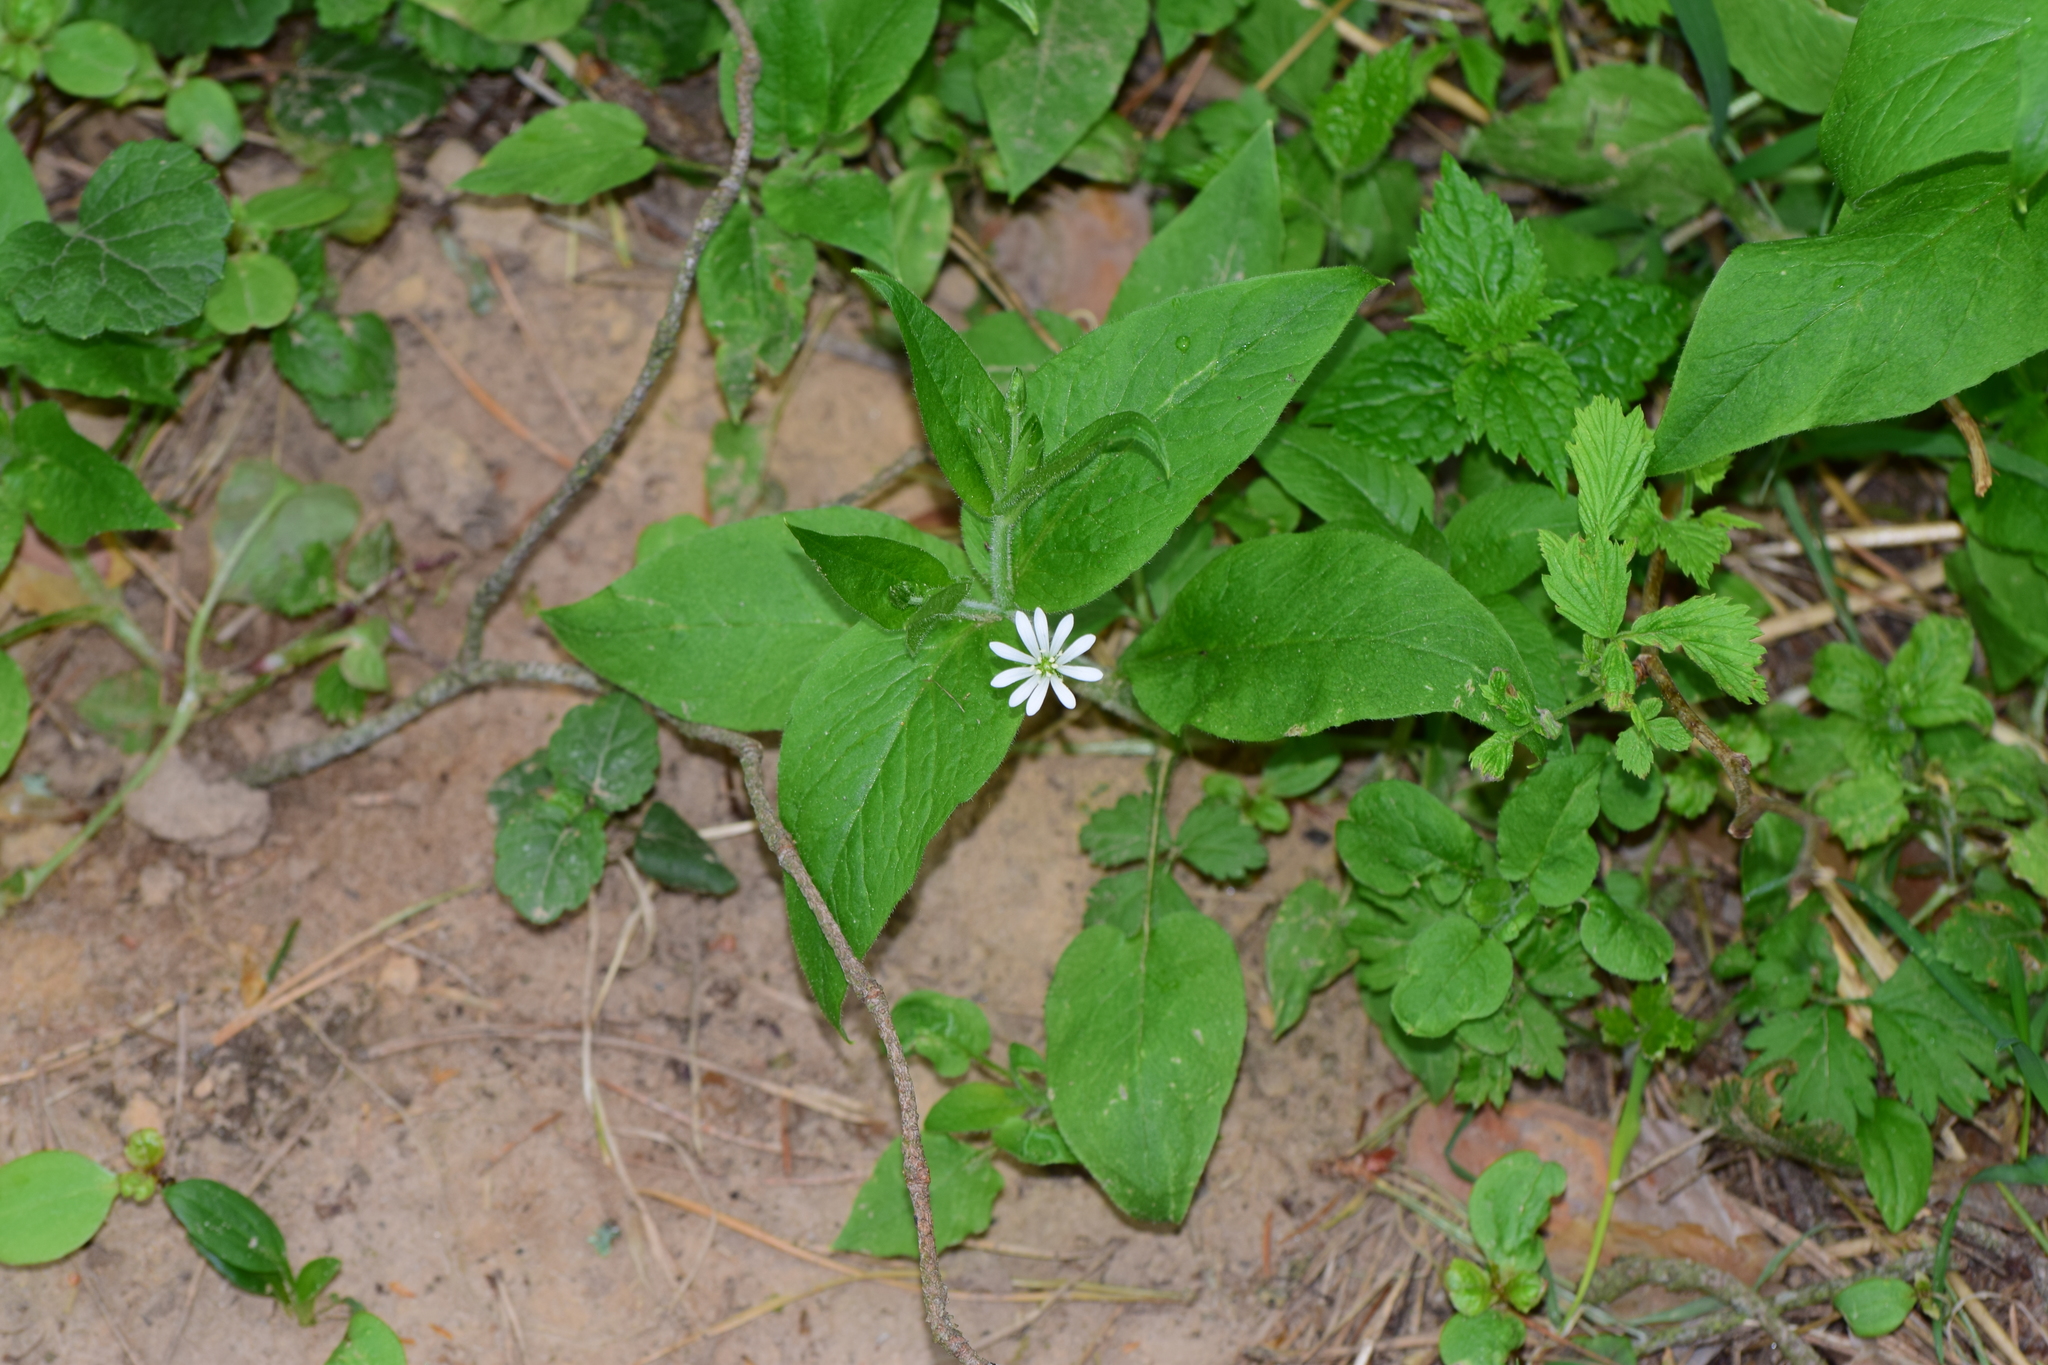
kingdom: Plantae
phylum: Tracheophyta
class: Magnoliopsida
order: Caryophyllales
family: Caryophyllaceae
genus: Stellaria
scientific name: Stellaria nemorum
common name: Wood stitchwort
